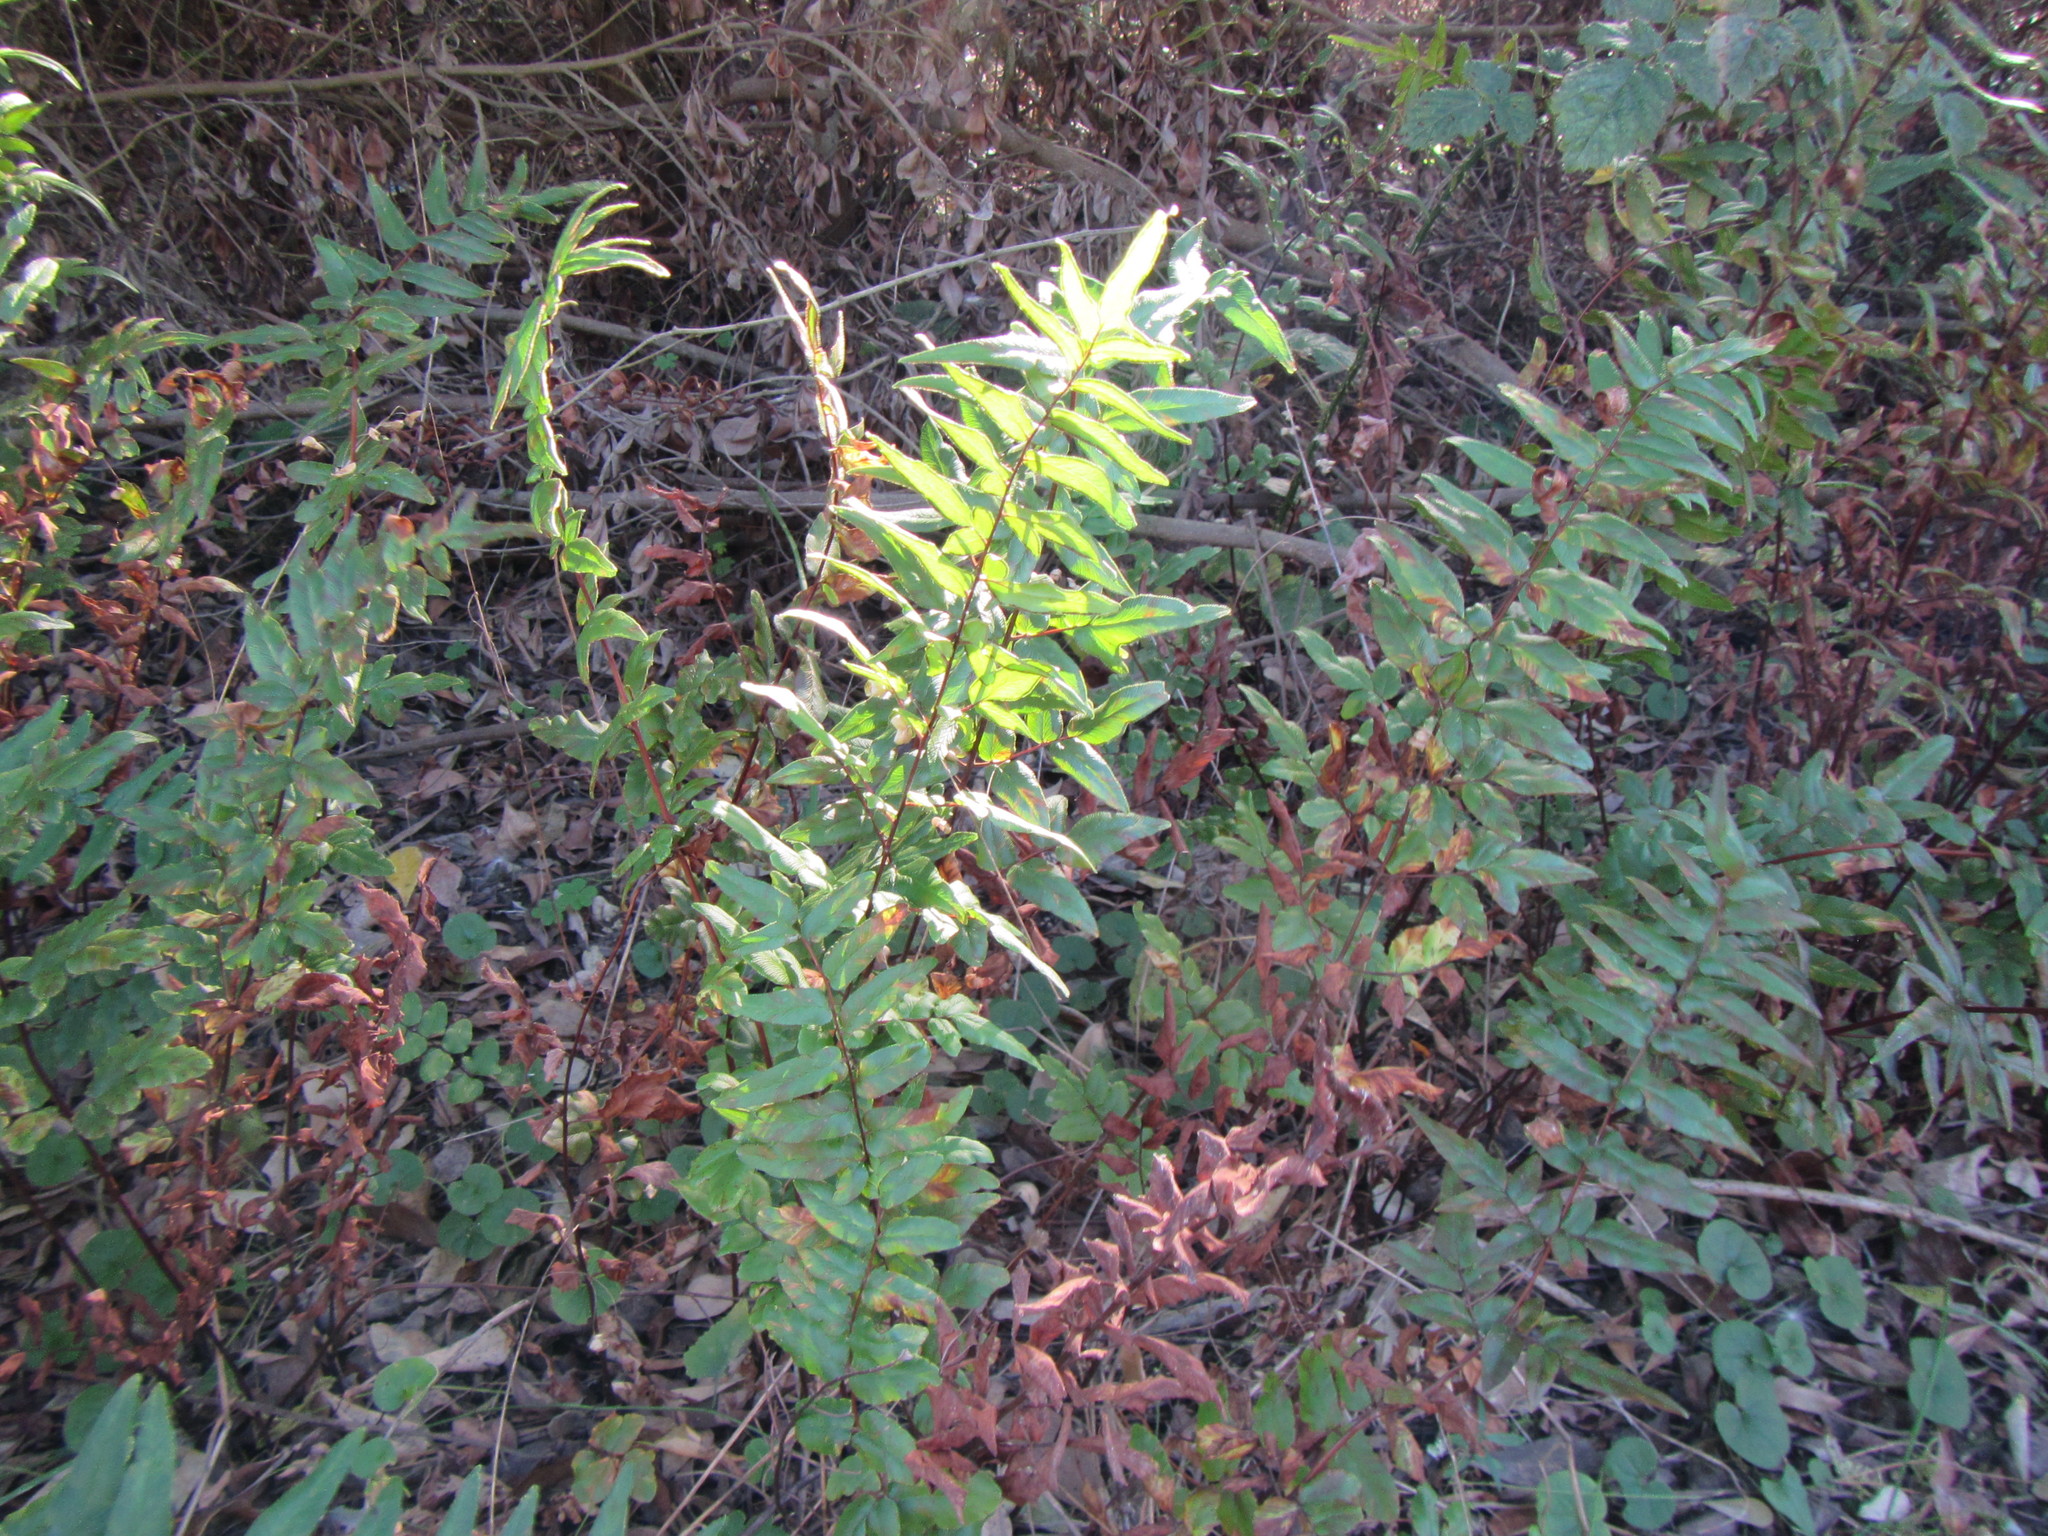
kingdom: Plantae
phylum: Tracheophyta
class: Polypodiopsida
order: Polypodiales
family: Pteridaceae
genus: Cheilanthes
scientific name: Cheilanthes viridis
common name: Green cliffbrake
